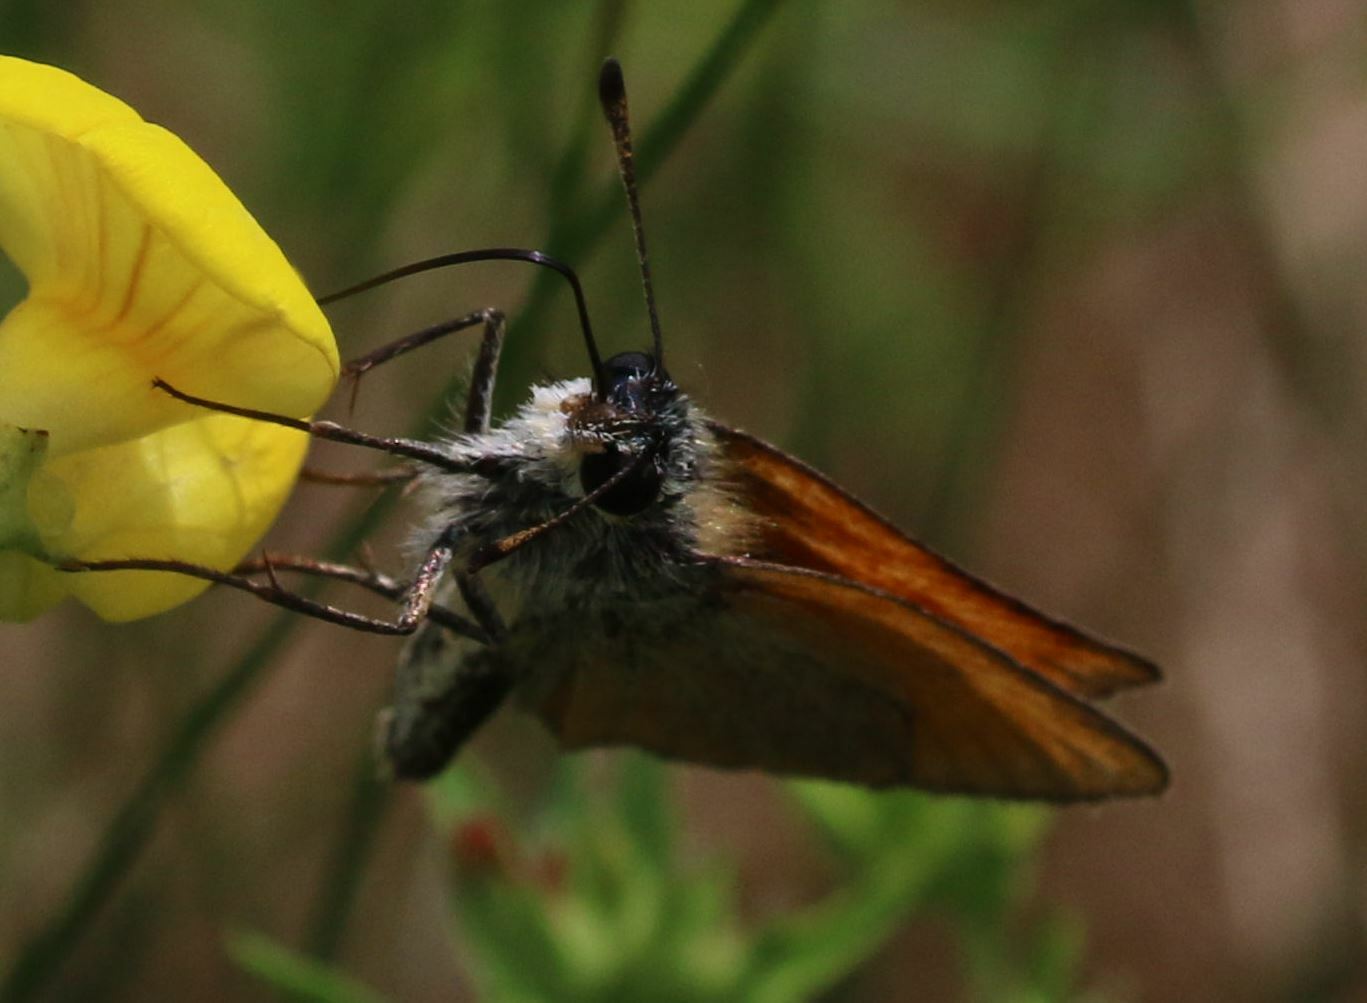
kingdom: Animalia
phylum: Arthropoda
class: Insecta
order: Lepidoptera
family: Hesperiidae
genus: Thymelicus
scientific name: Thymelicus lineola
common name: Essex skipper
